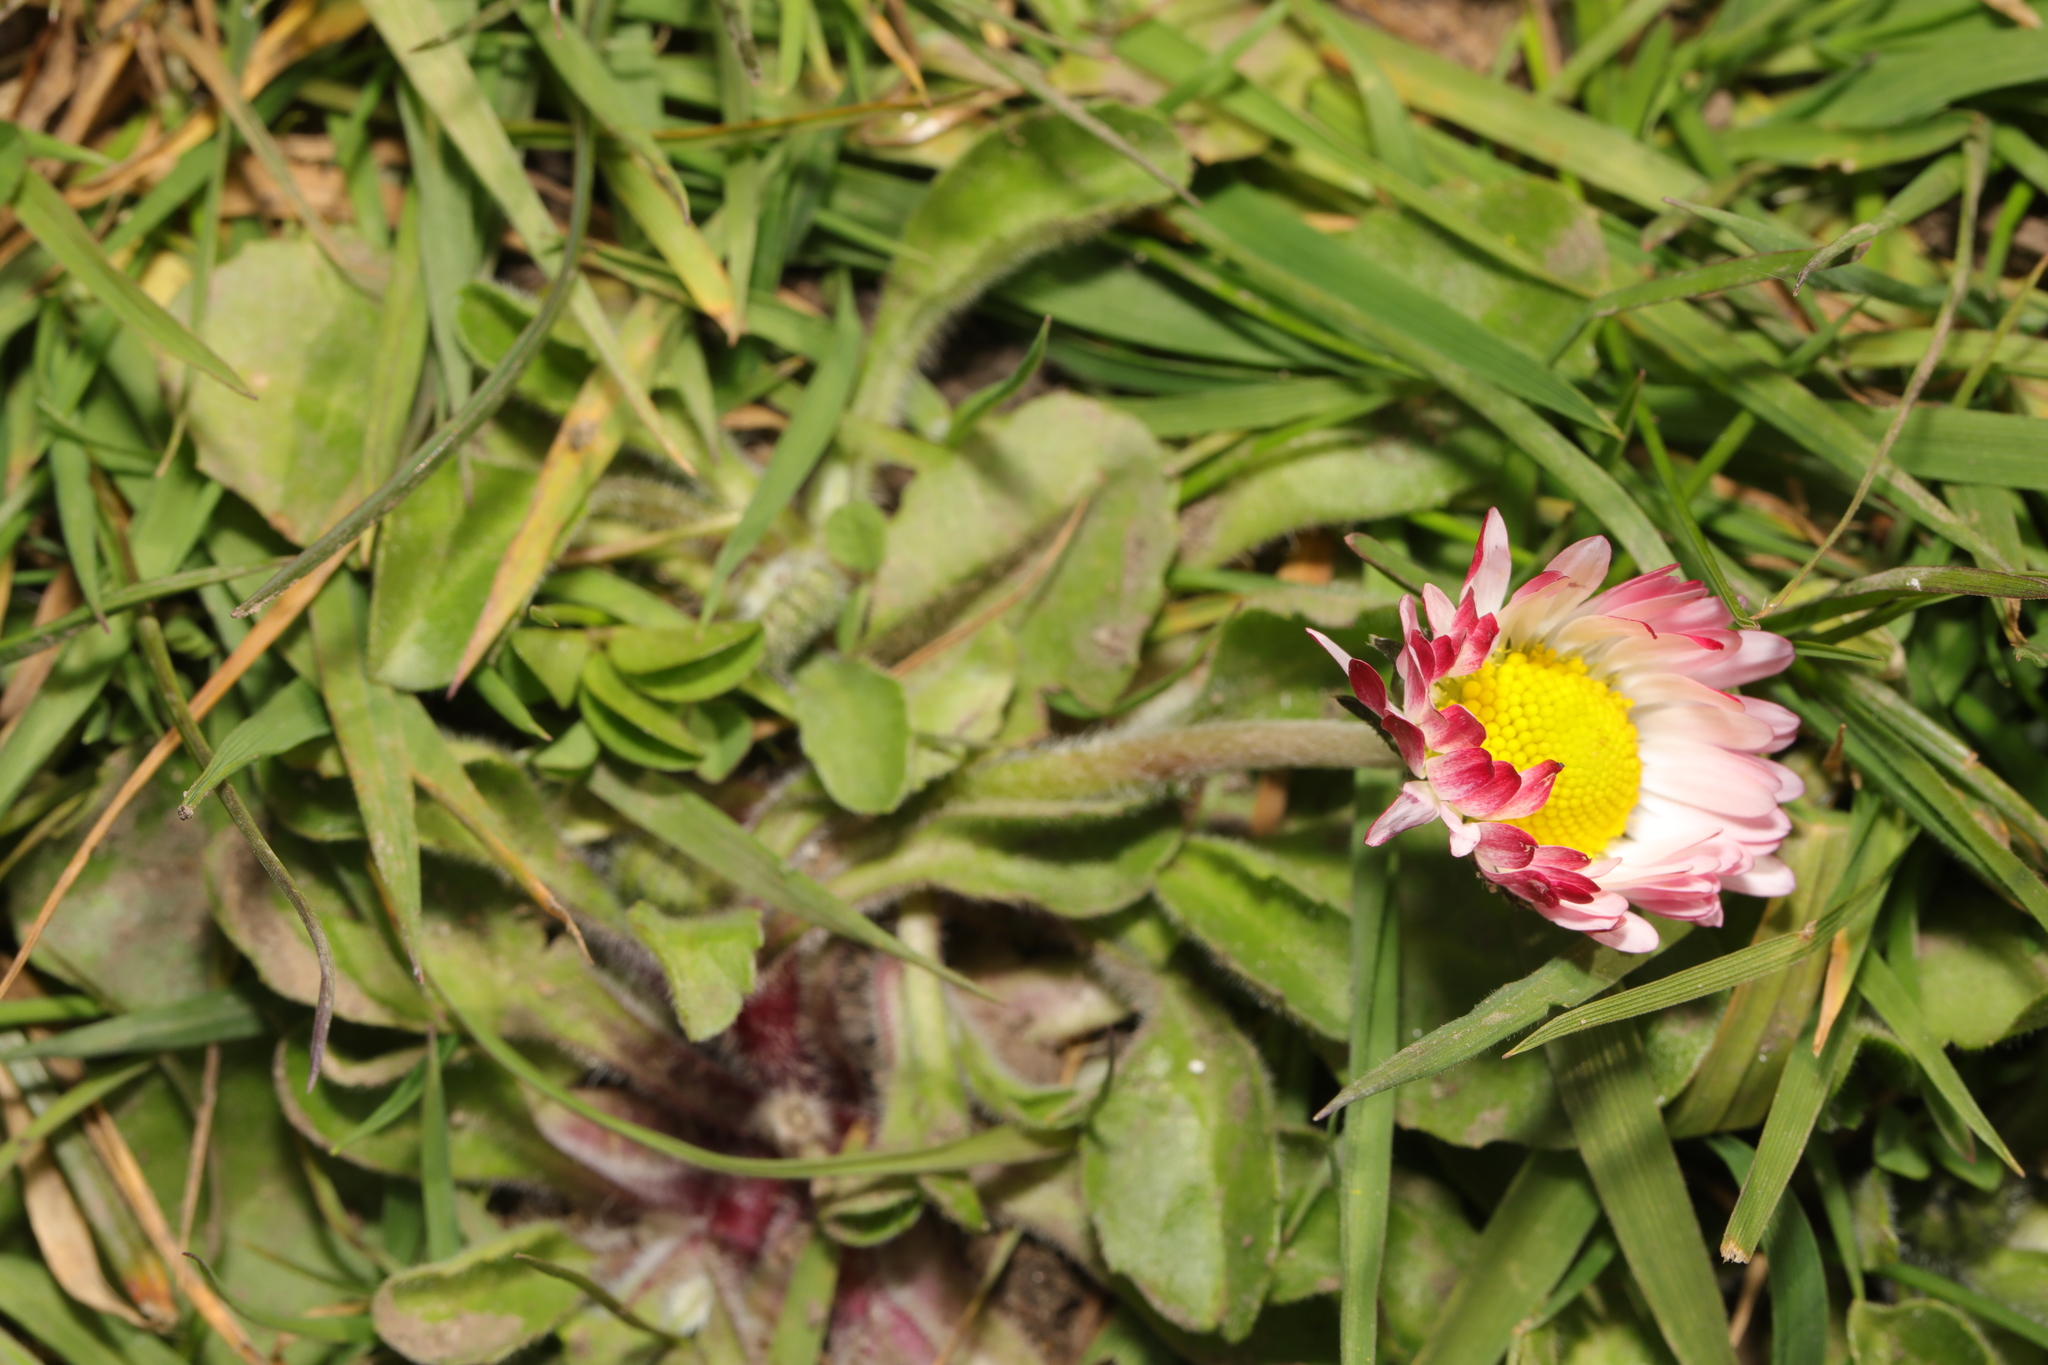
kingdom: Plantae
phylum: Tracheophyta
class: Magnoliopsida
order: Asterales
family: Asteraceae
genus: Bellis
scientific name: Bellis perennis
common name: Lawndaisy
